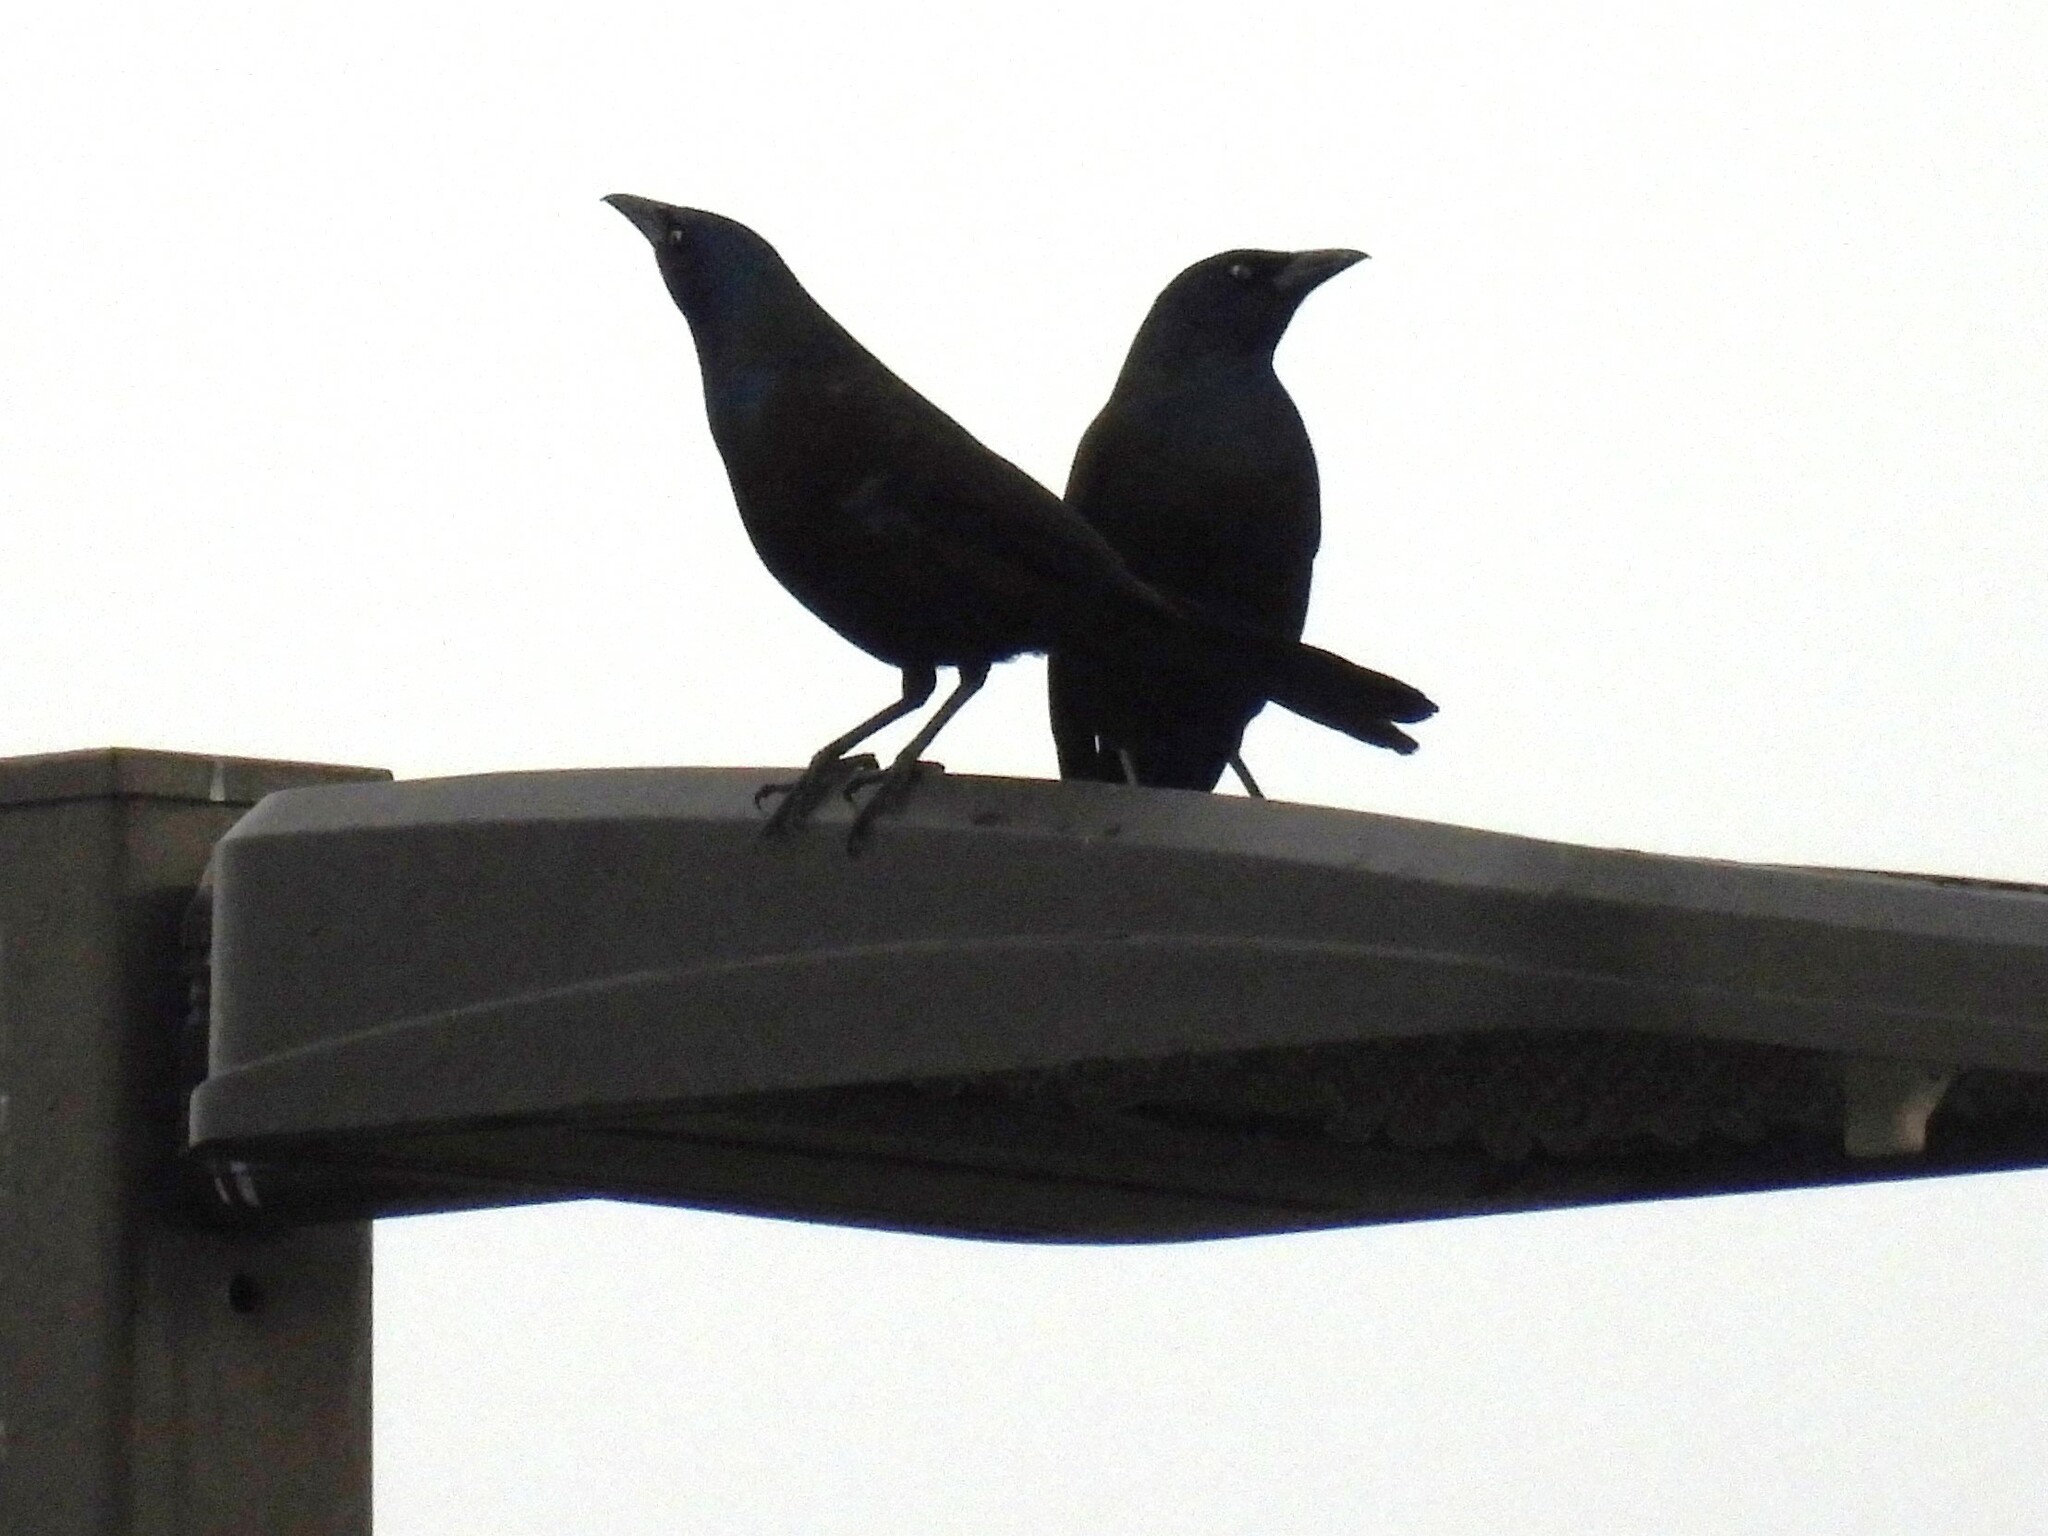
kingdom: Animalia
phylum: Chordata
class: Aves
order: Passeriformes
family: Icteridae
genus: Quiscalus
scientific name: Quiscalus quiscula
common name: Common grackle
